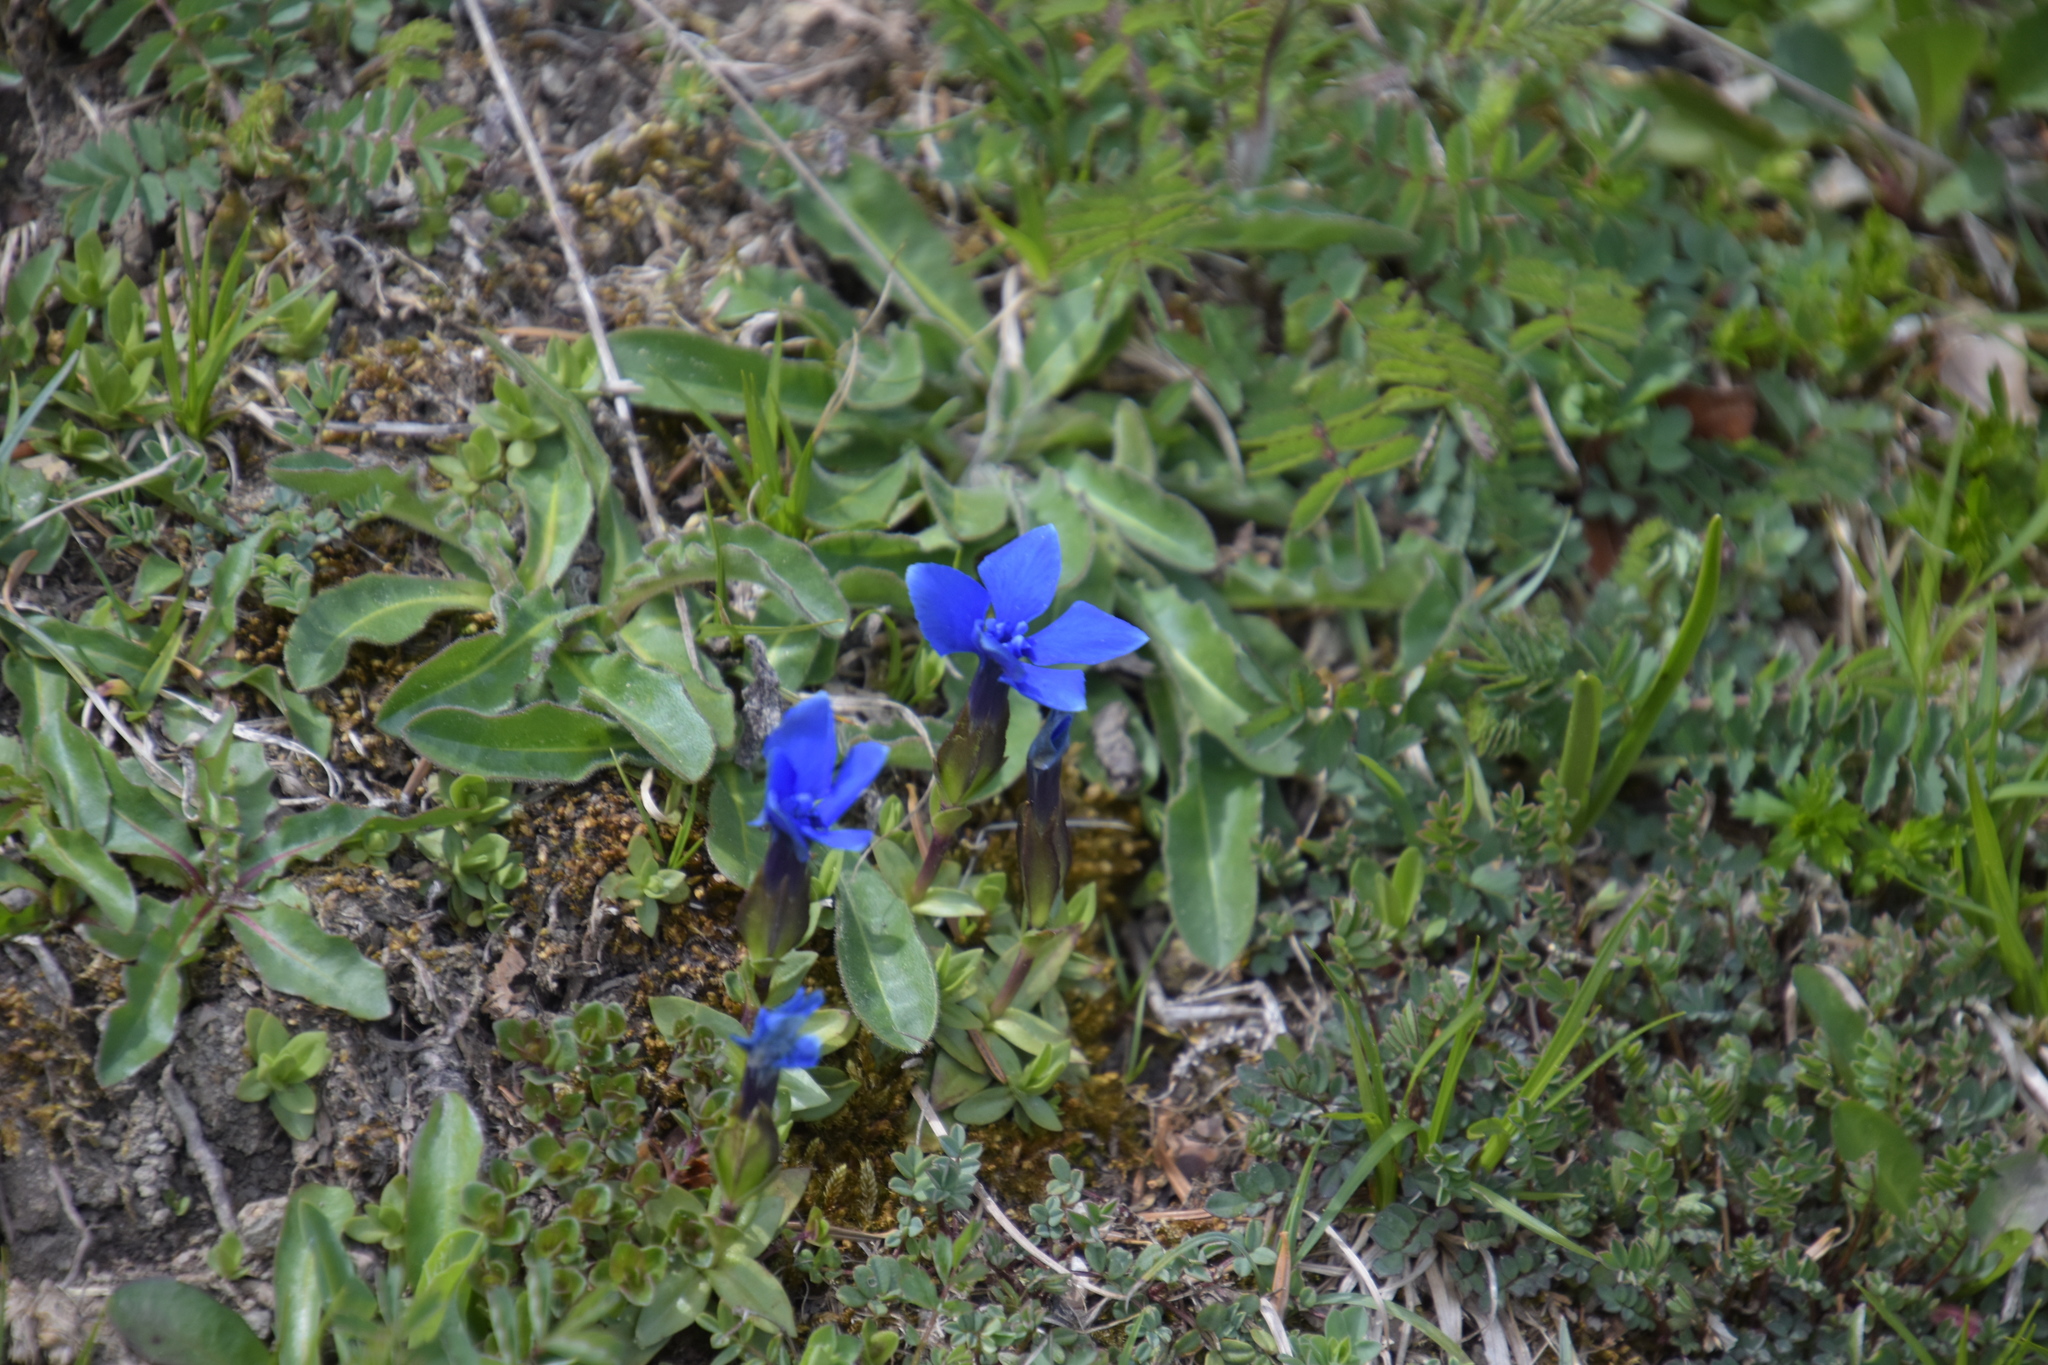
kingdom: Plantae
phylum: Tracheophyta
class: Magnoliopsida
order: Gentianales
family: Gentianaceae
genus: Gentiana
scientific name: Gentiana verna
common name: Spring gentian
